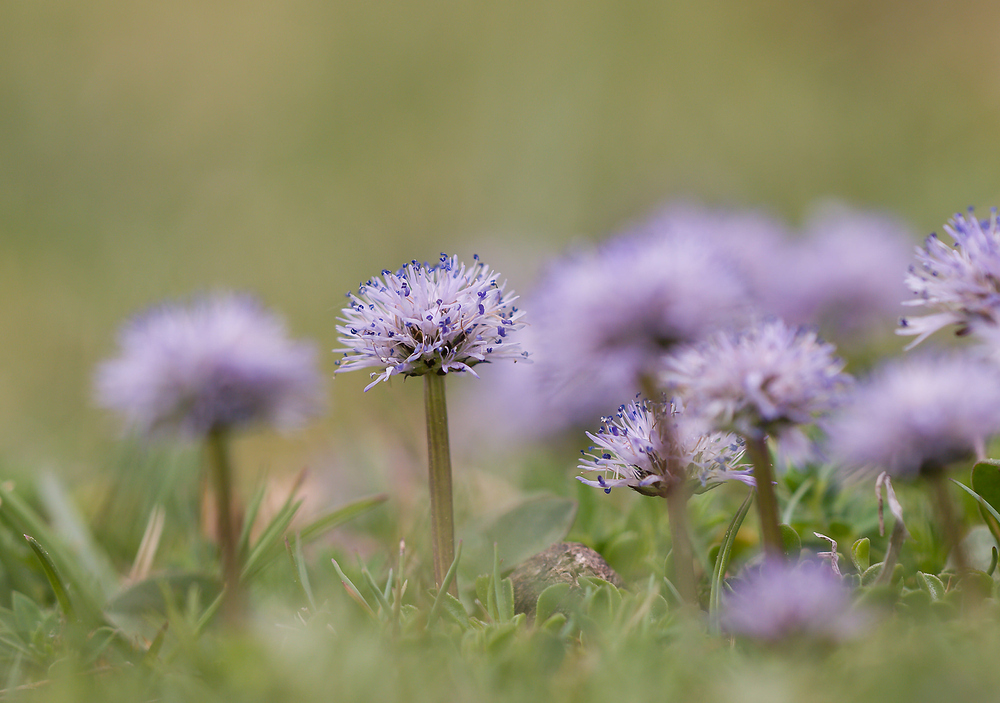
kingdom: Plantae
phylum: Tracheophyta
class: Magnoliopsida
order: Lamiales
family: Plantaginaceae
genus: Globularia
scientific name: Globularia cordifolia
